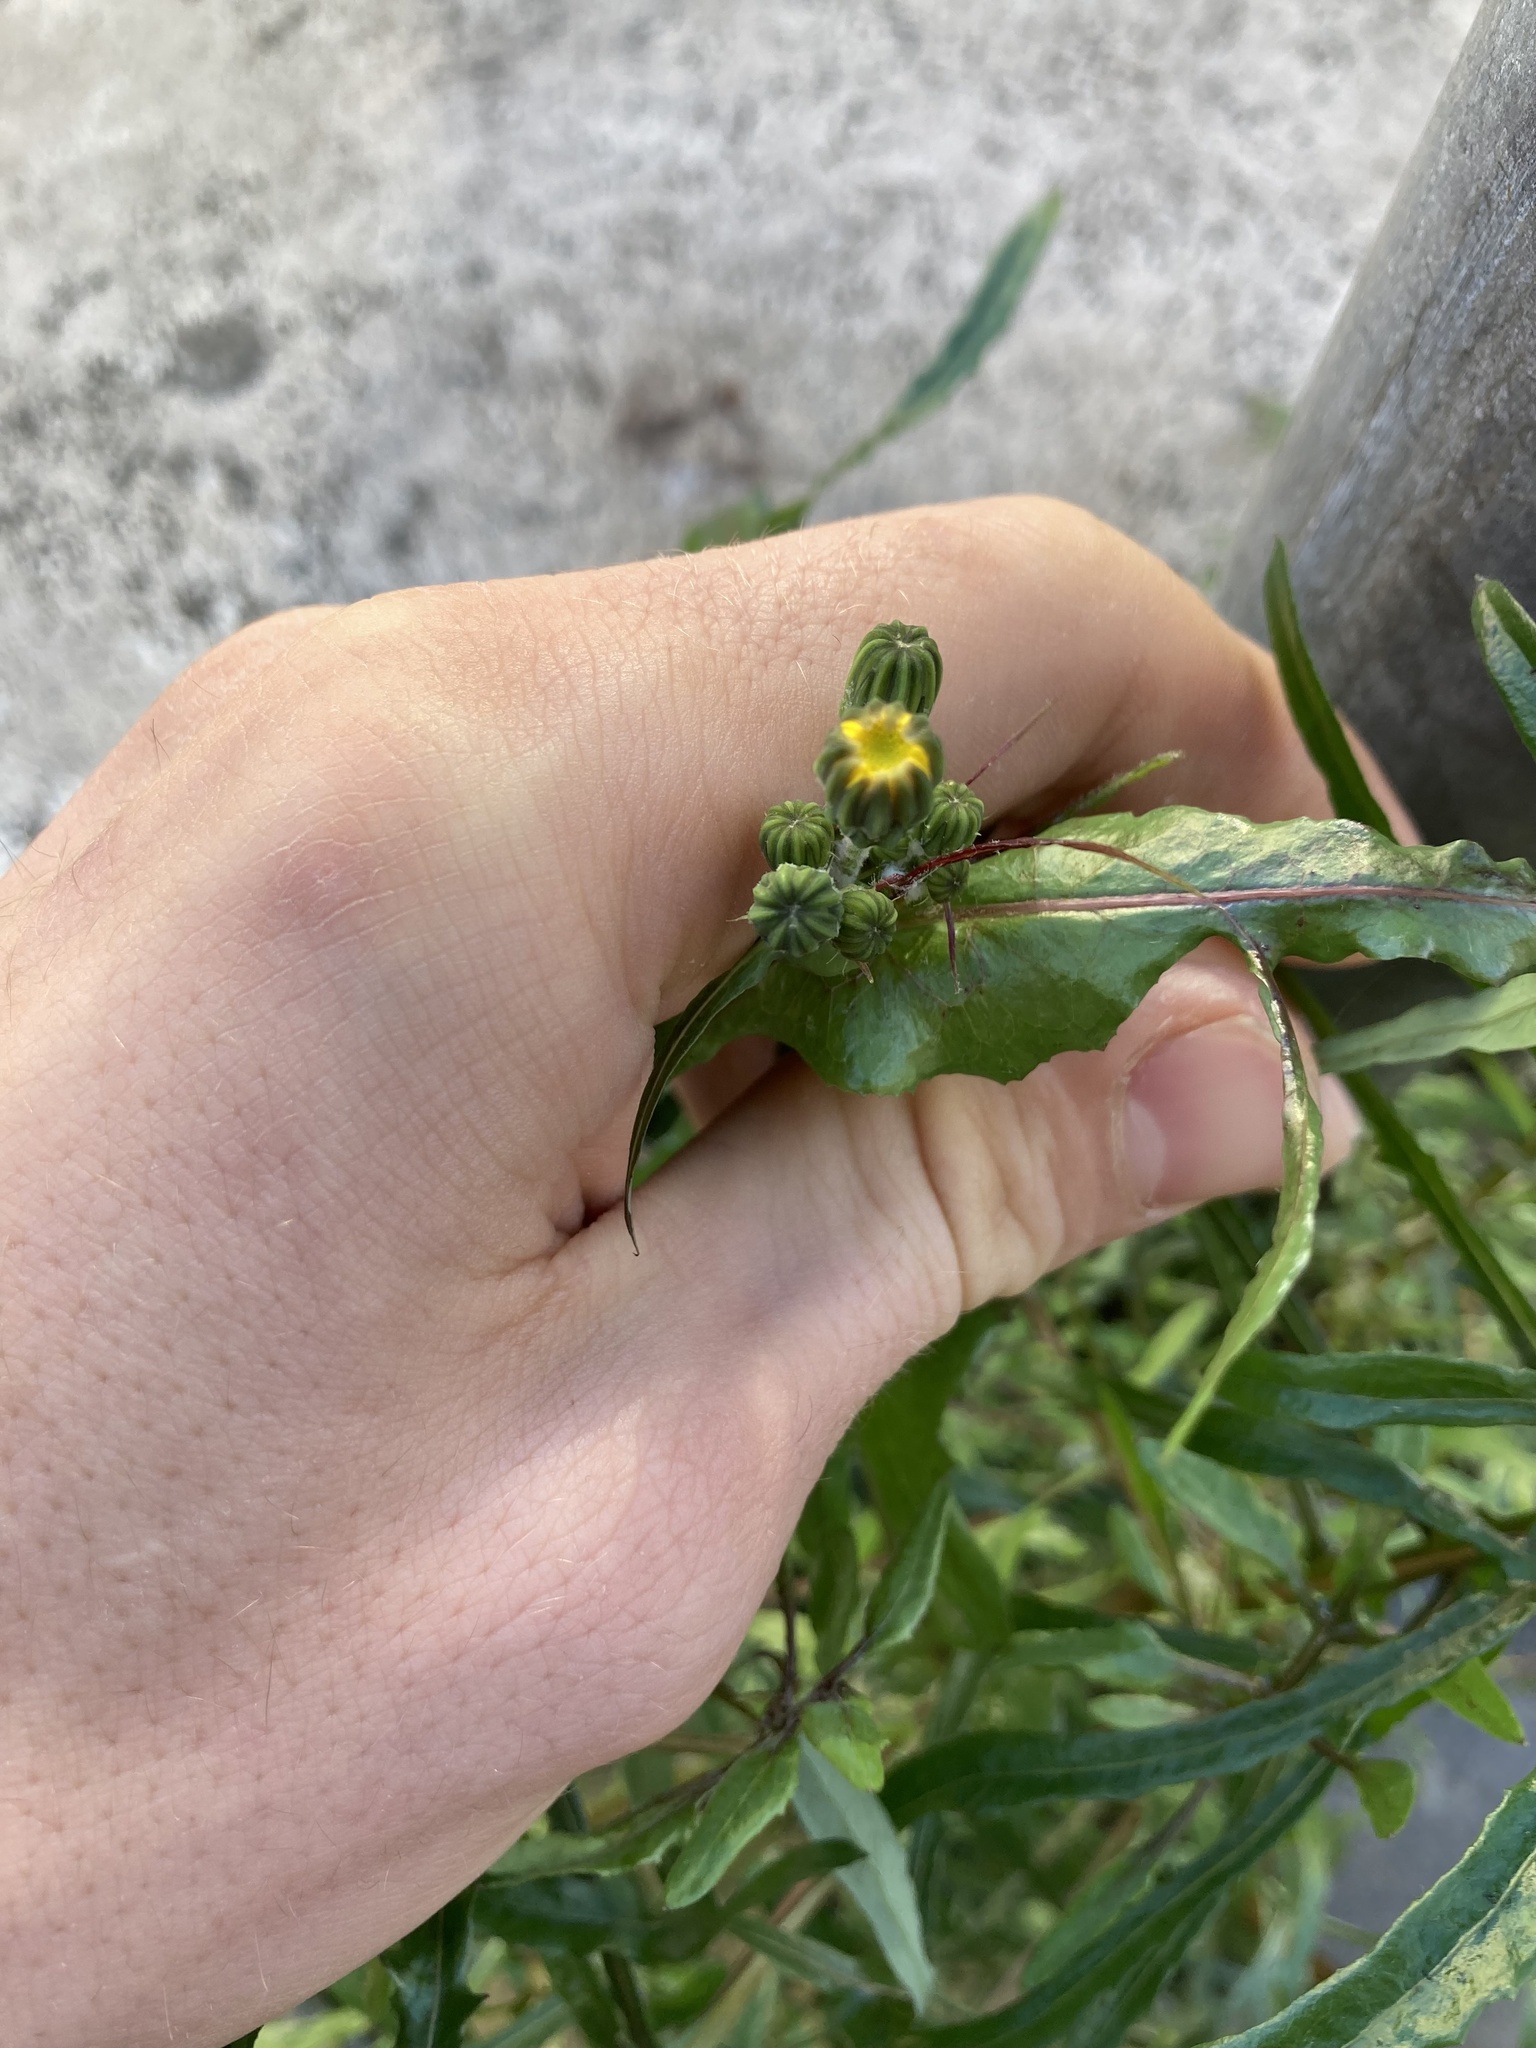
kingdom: Plantae
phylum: Tracheophyta
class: Magnoliopsida
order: Asterales
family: Asteraceae
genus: Sonchus
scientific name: Sonchus tenerrimus
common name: Clammy sowthistle
